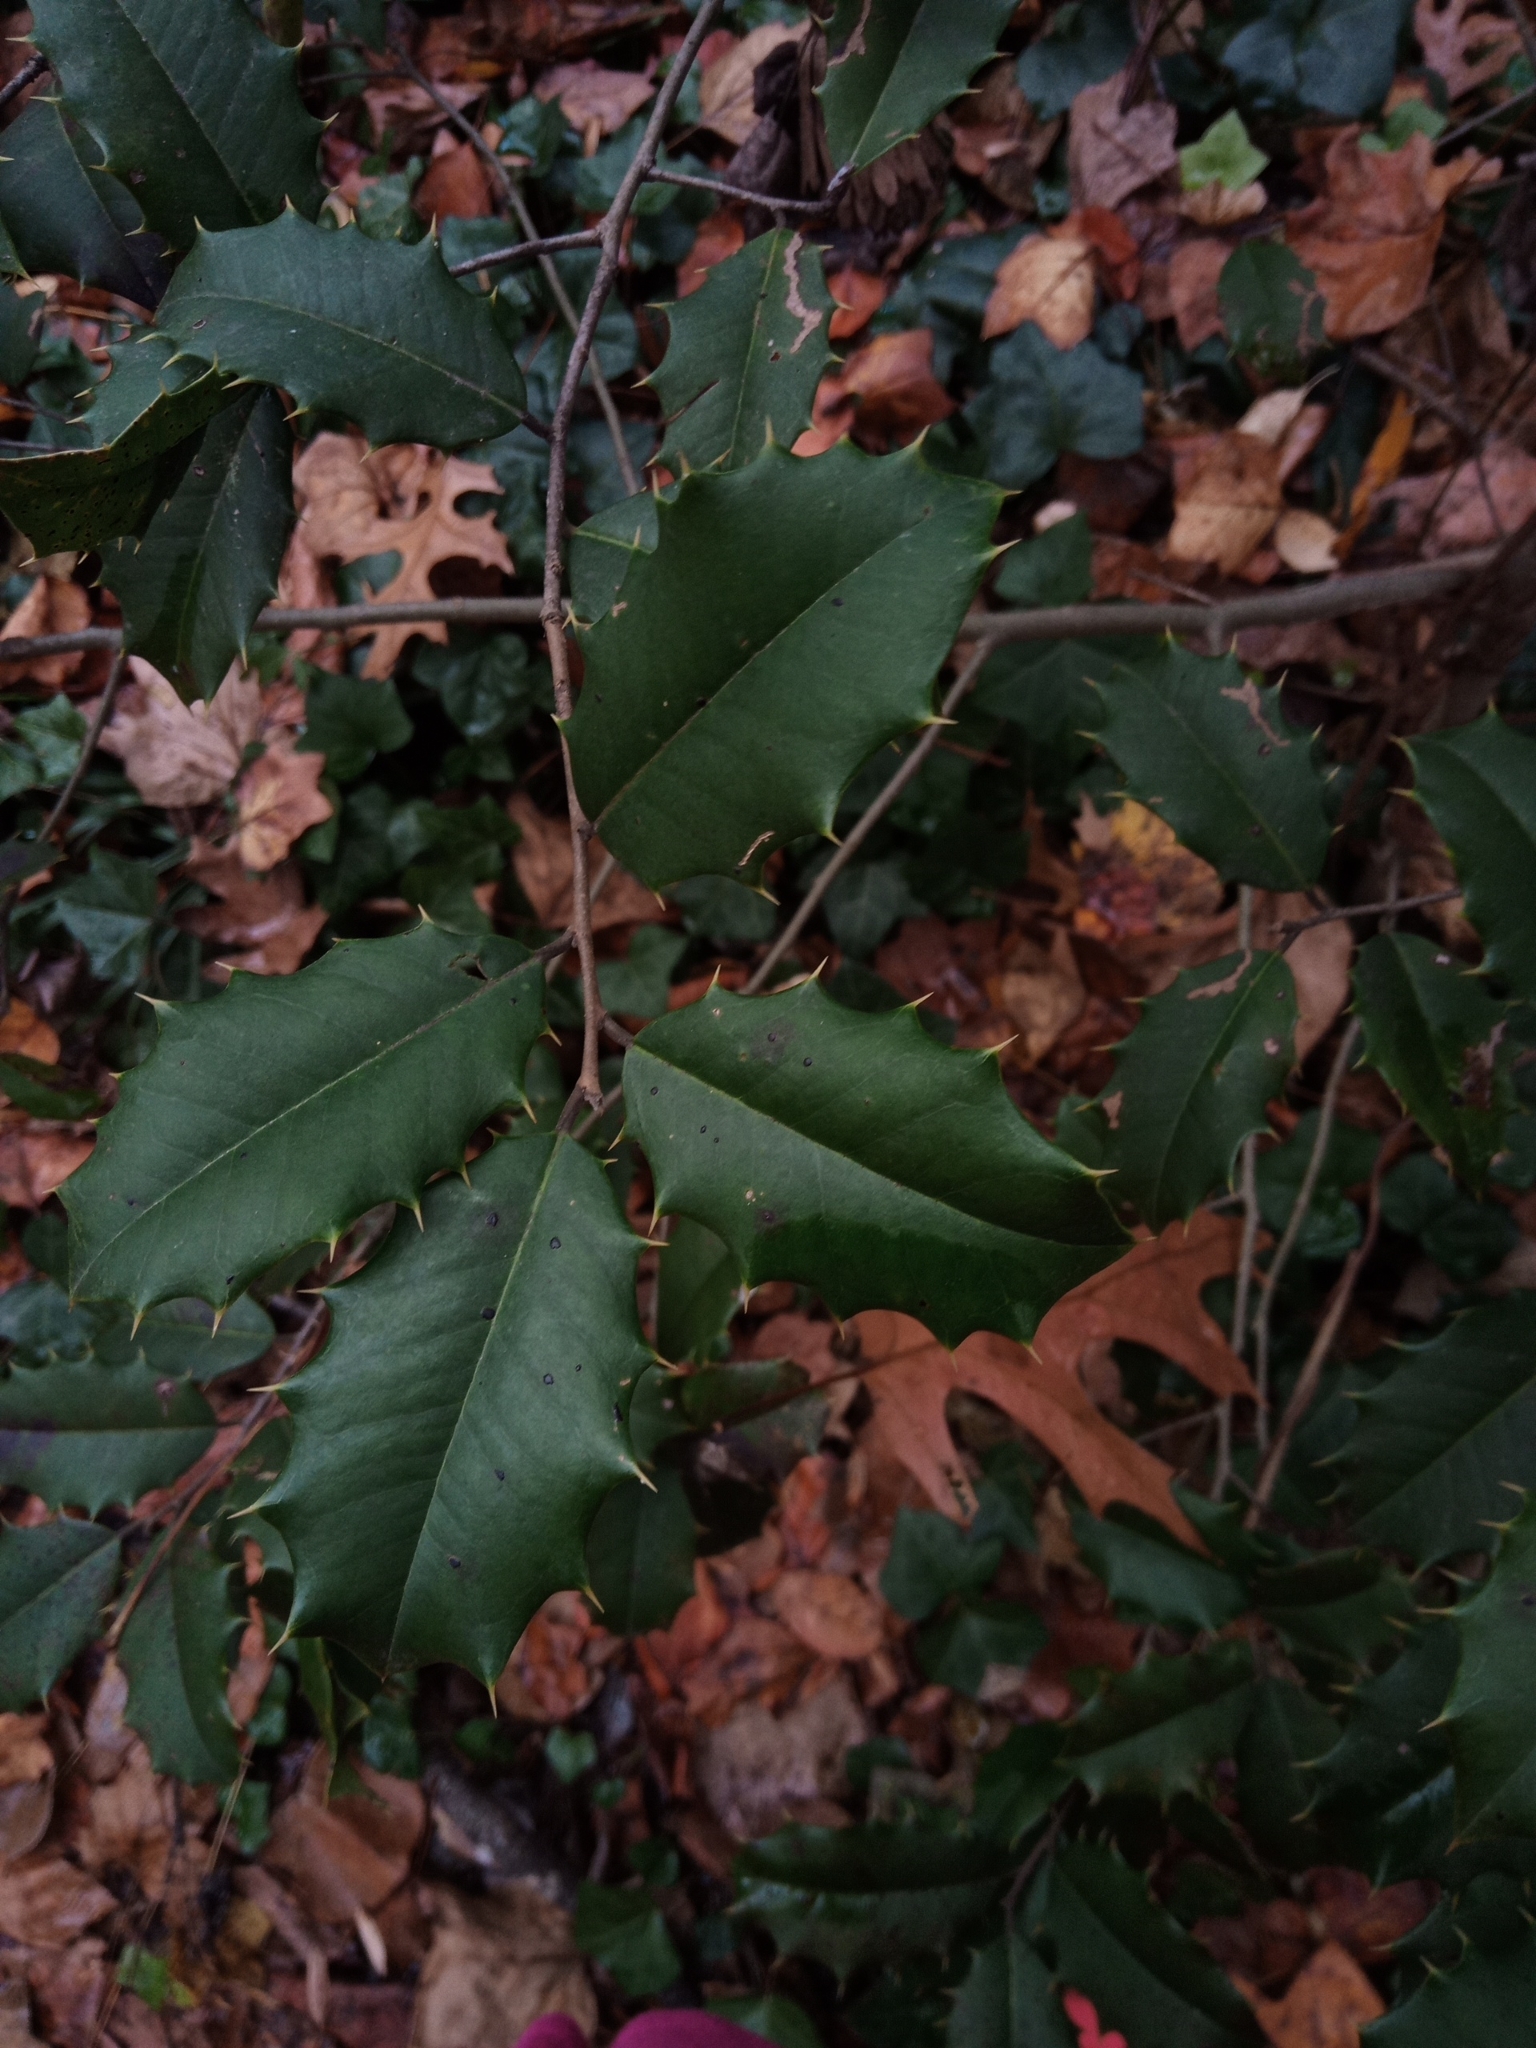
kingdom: Plantae
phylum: Tracheophyta
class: Magnoliopsida
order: Aquifoliales
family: Aquifoliaceae
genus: Ilex
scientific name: Ilex opaca
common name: American holly
